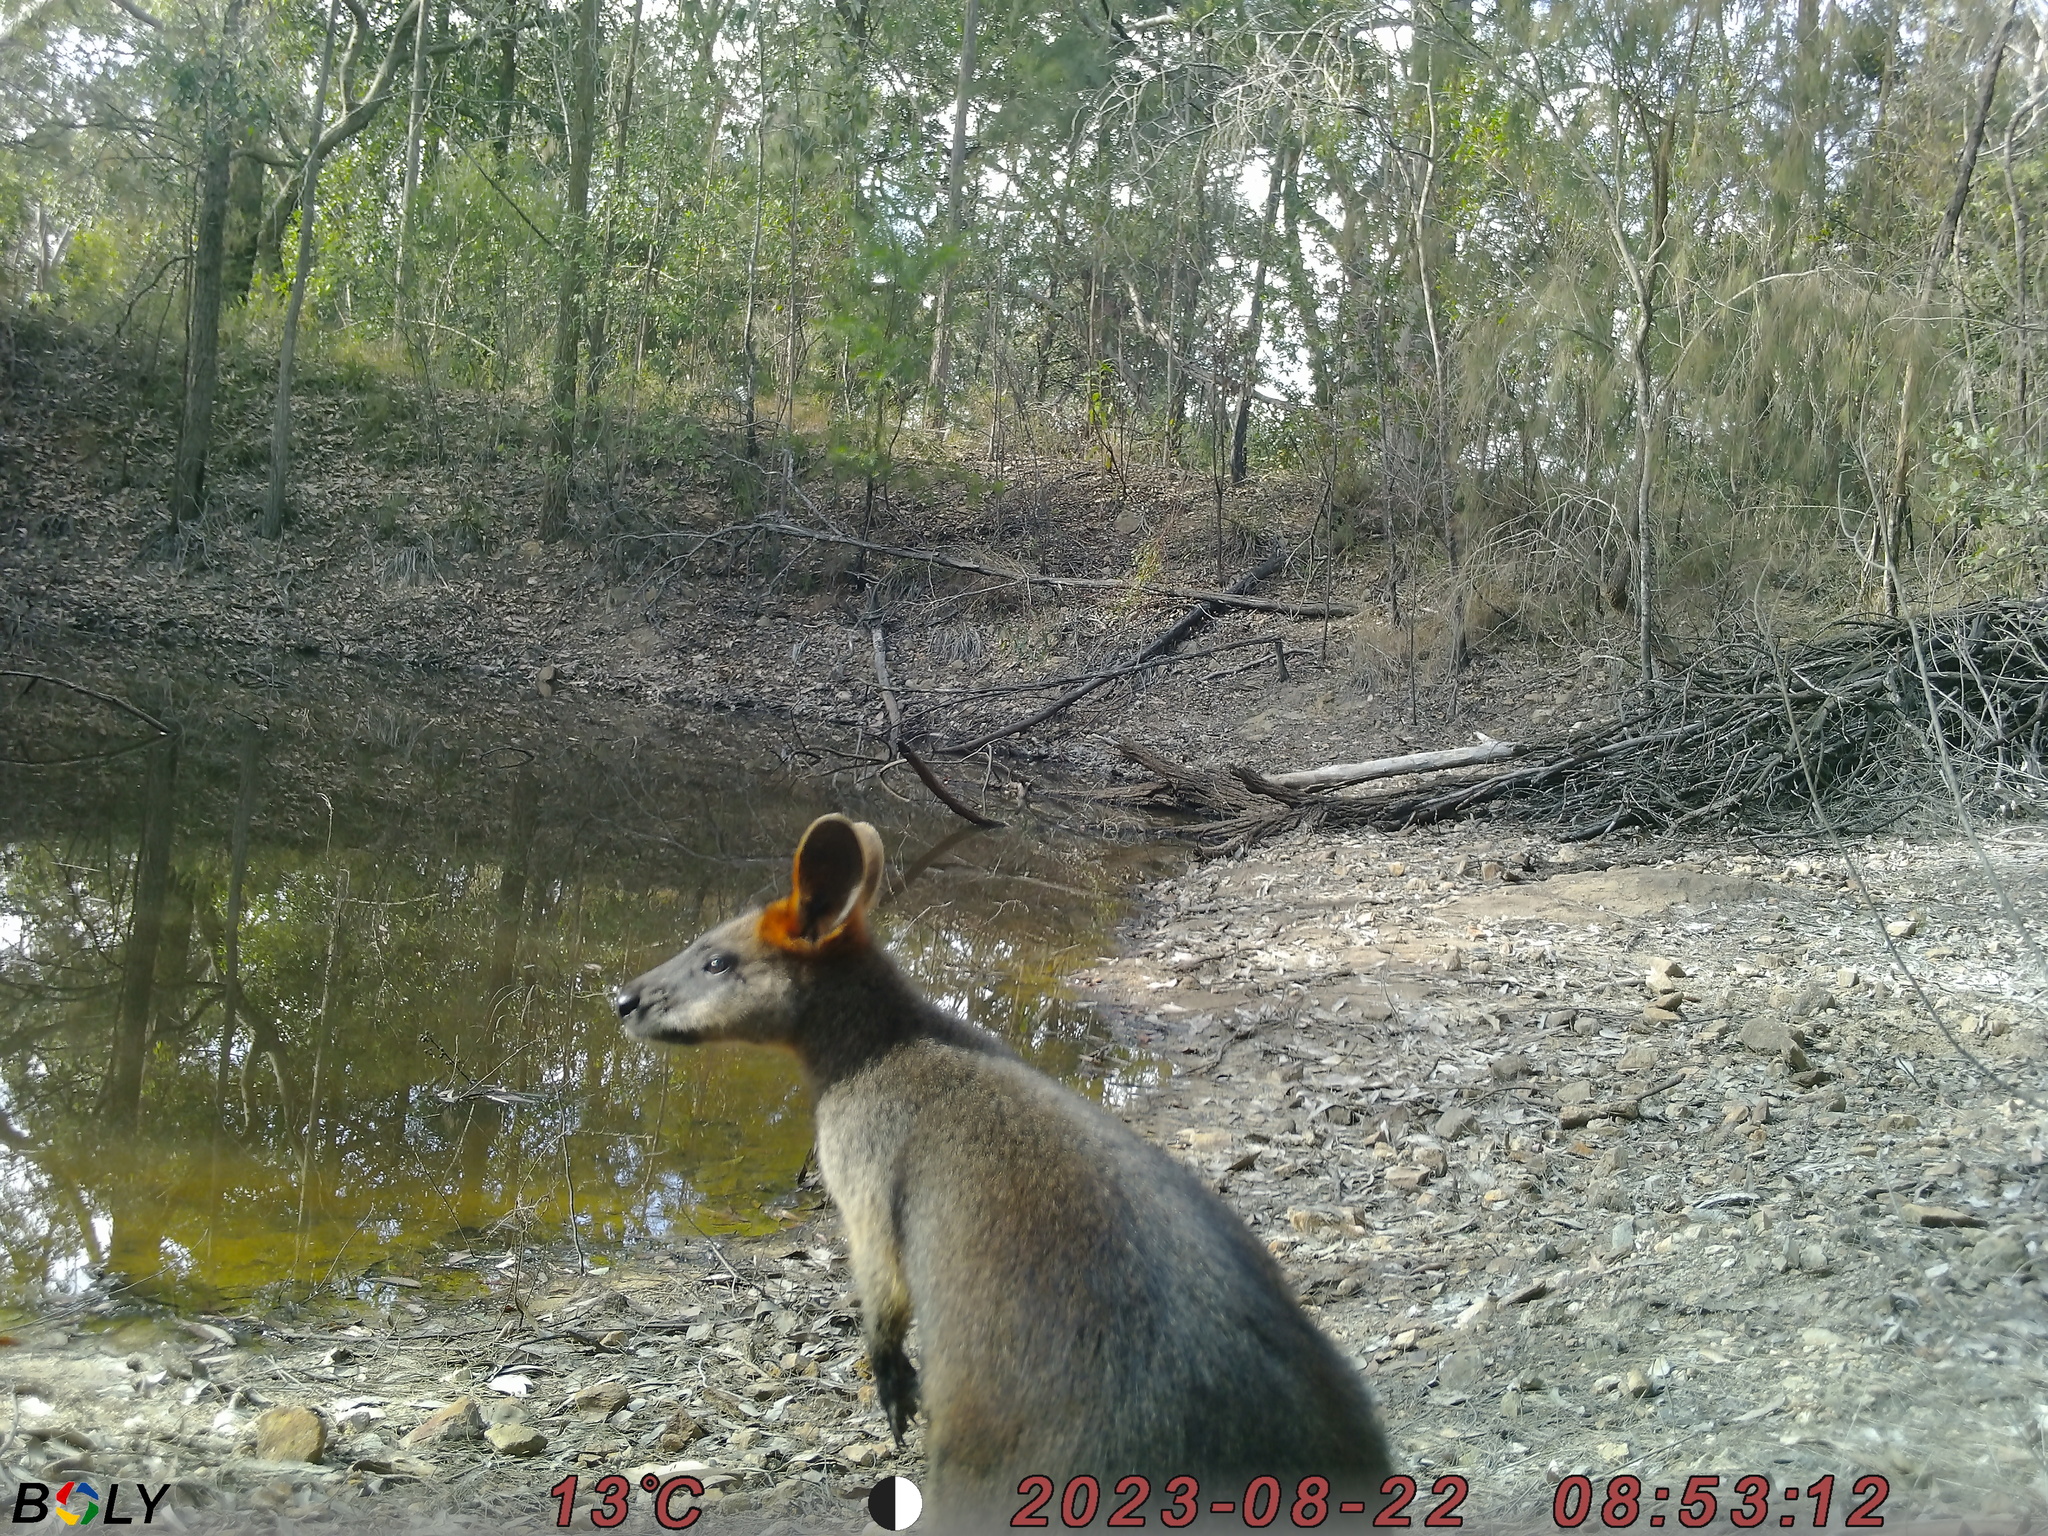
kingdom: Animalia
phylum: Chordata
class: Mammalia
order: Diprotodontia
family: Macropodidae
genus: Wallabia
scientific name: Wallabia bicolor
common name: Swamp wallaby
